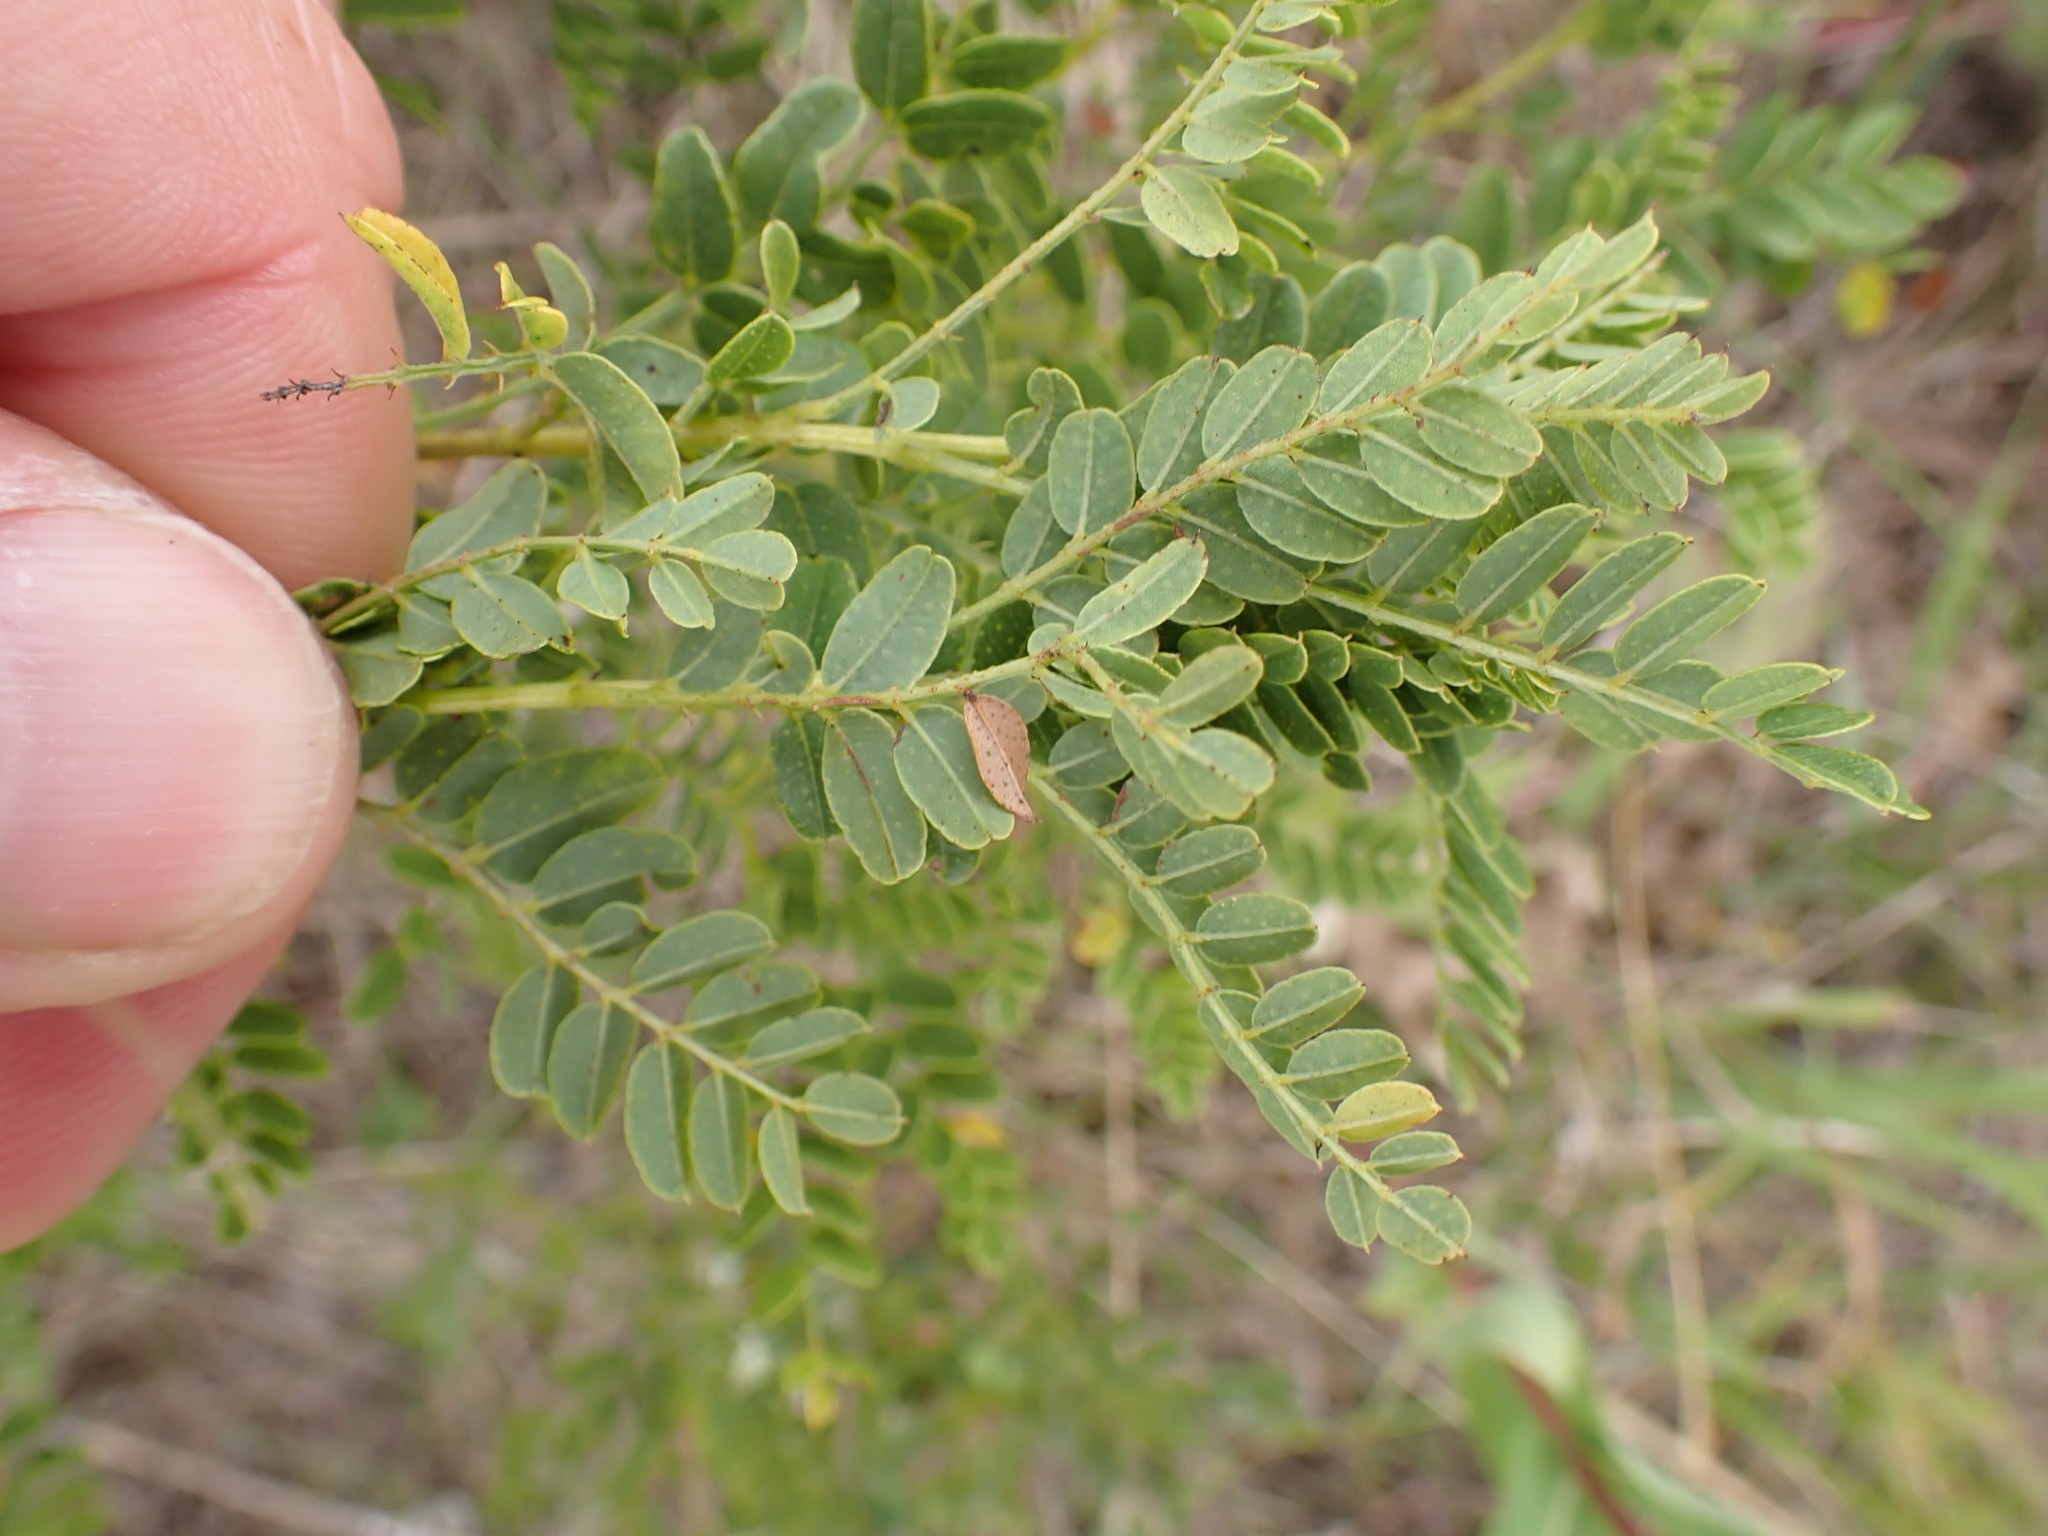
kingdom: Plantae
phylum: Tracheophyta
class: Magnoliopsida
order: Fabales
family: Fabaceae
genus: Amorpha
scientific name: Amorpha nana
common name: Fragrant false indigo
